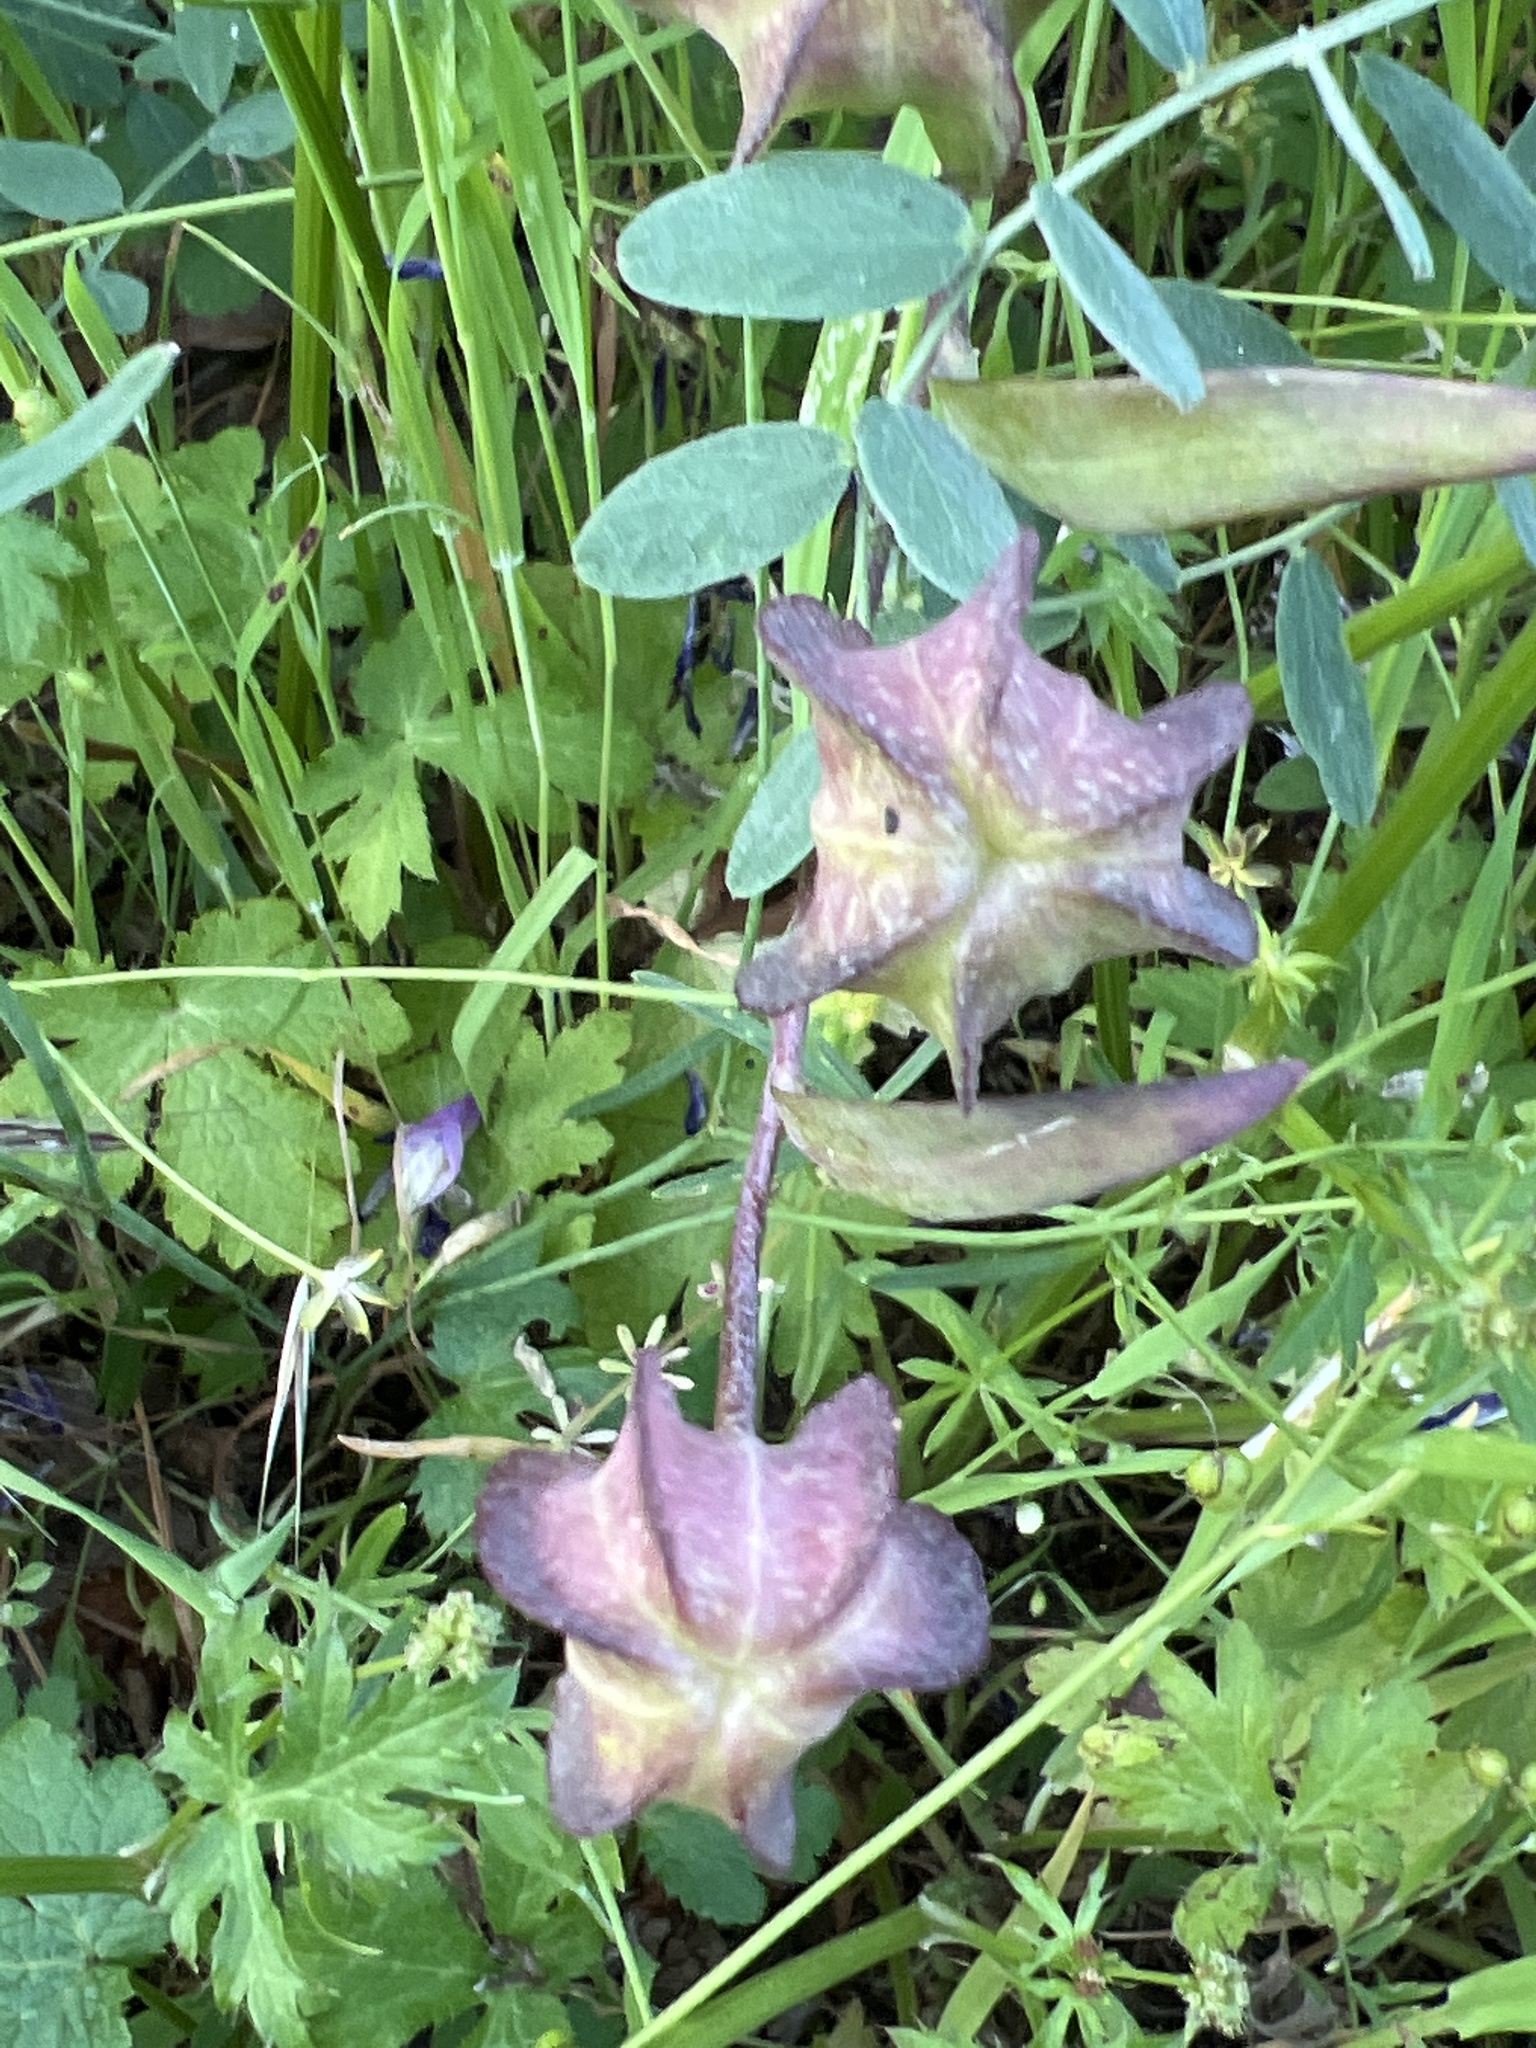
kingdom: Plantae
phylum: Tracheophyta
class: Liliopsida
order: Liliales
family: Liliaceae
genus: Fritillaria
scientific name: Fritillaria affinis
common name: Ojai fritillary
